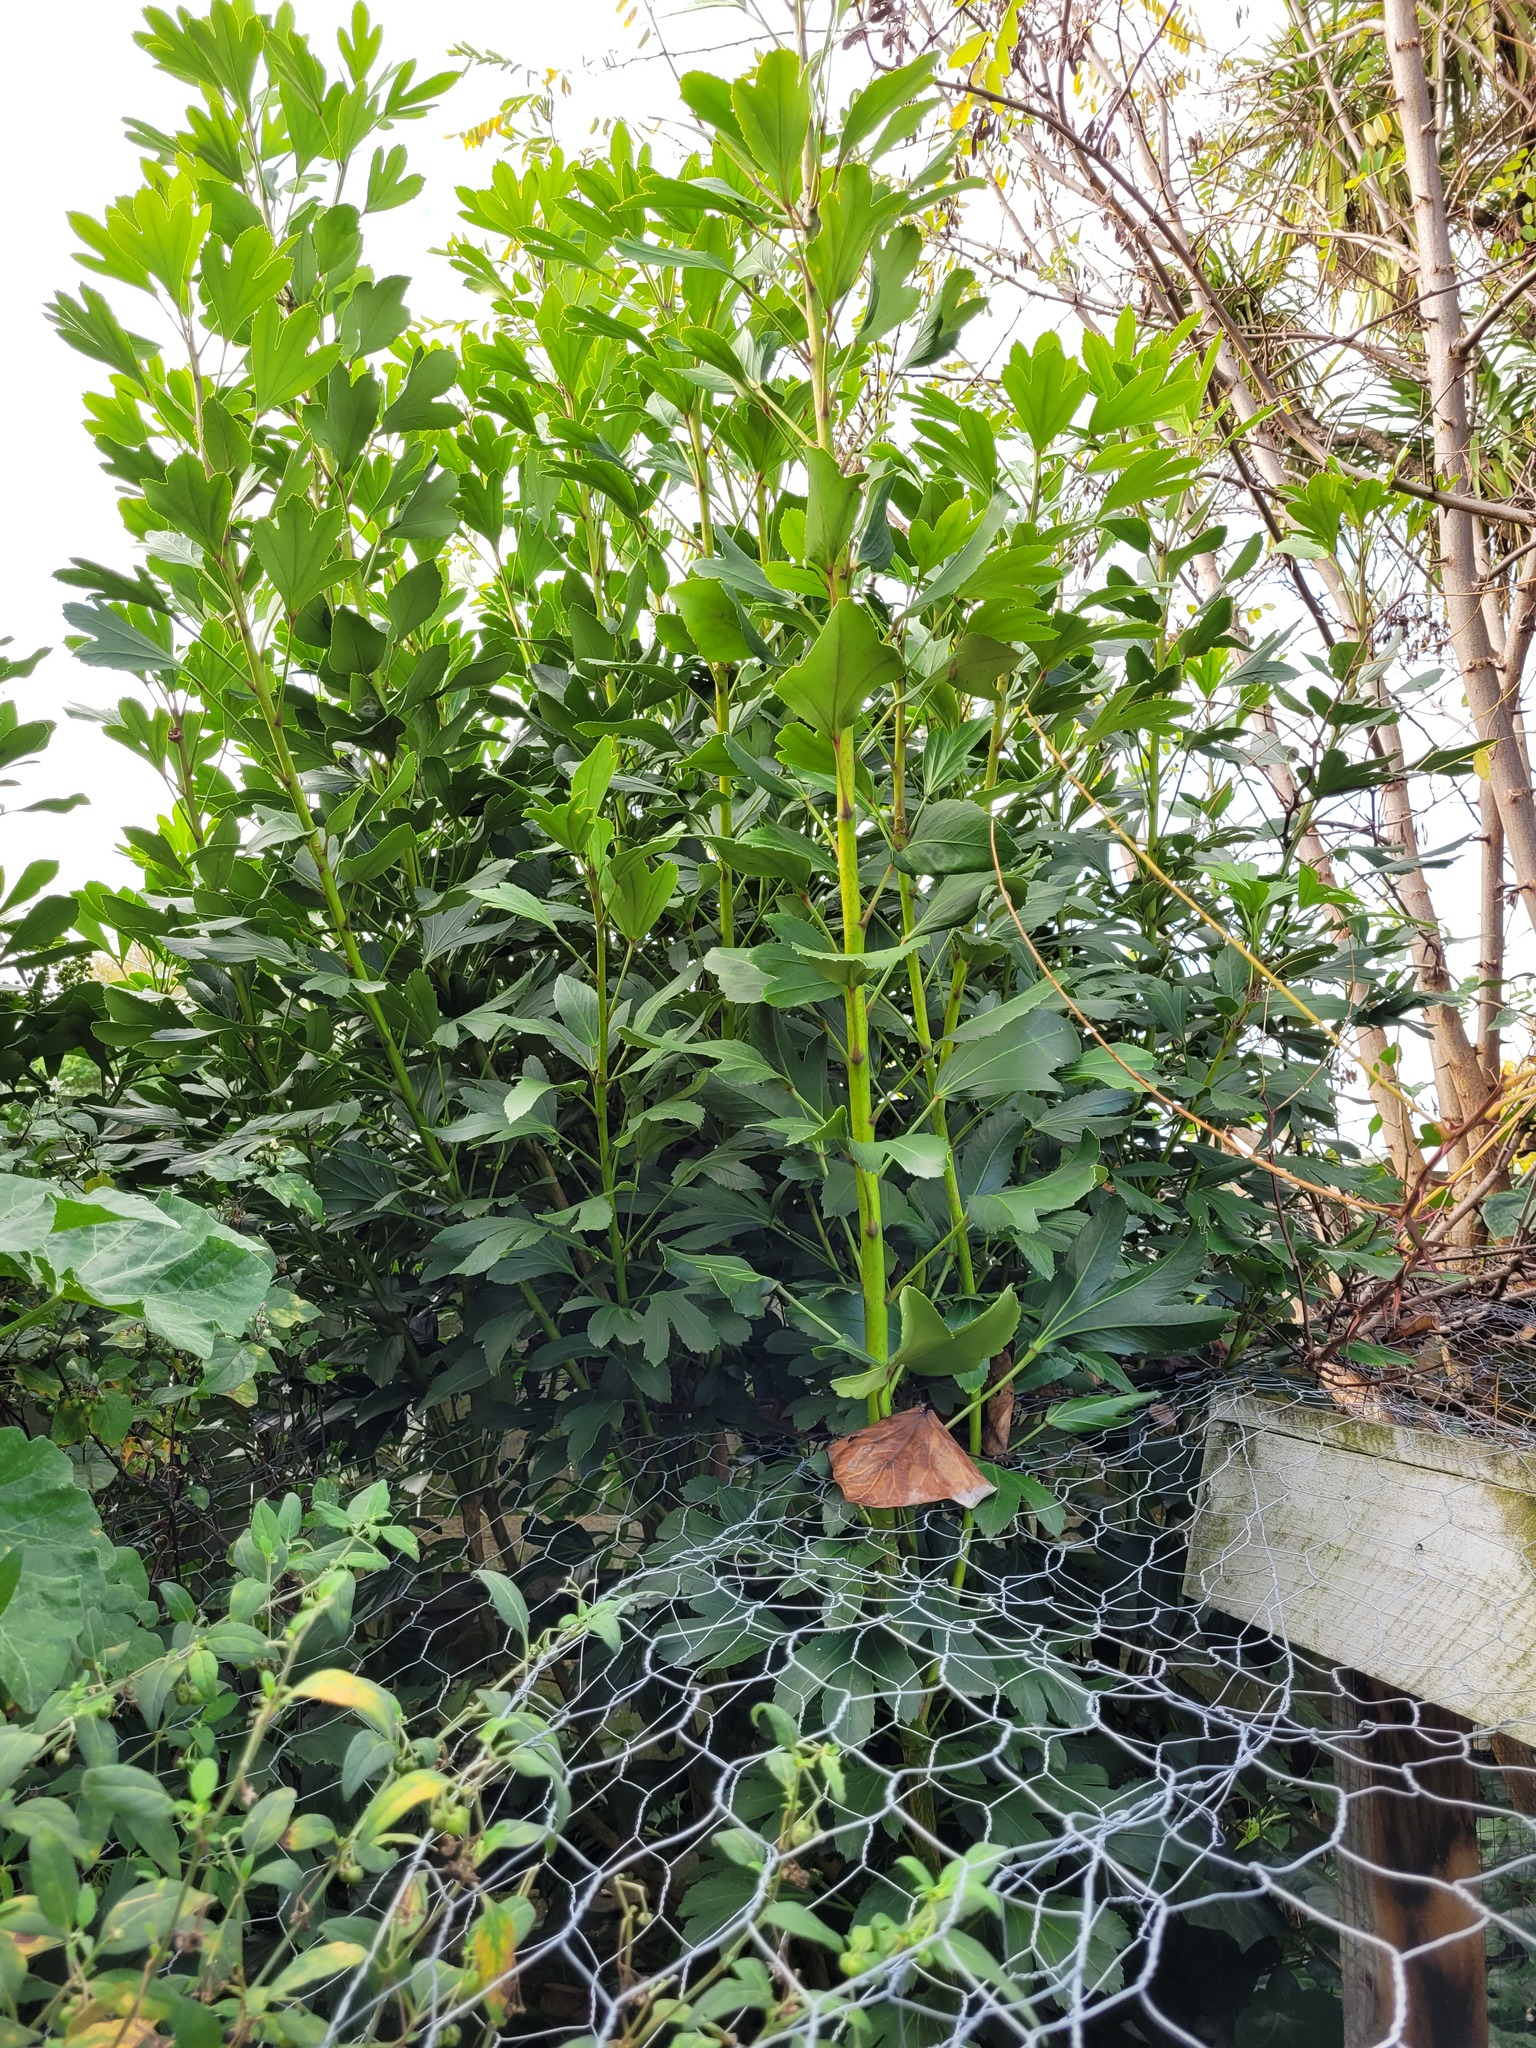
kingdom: Plantae
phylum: Tracheophyta
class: Magnoliopsida
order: Apiales
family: Araliaceae
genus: Pseudopanax
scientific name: Pseudopanax
